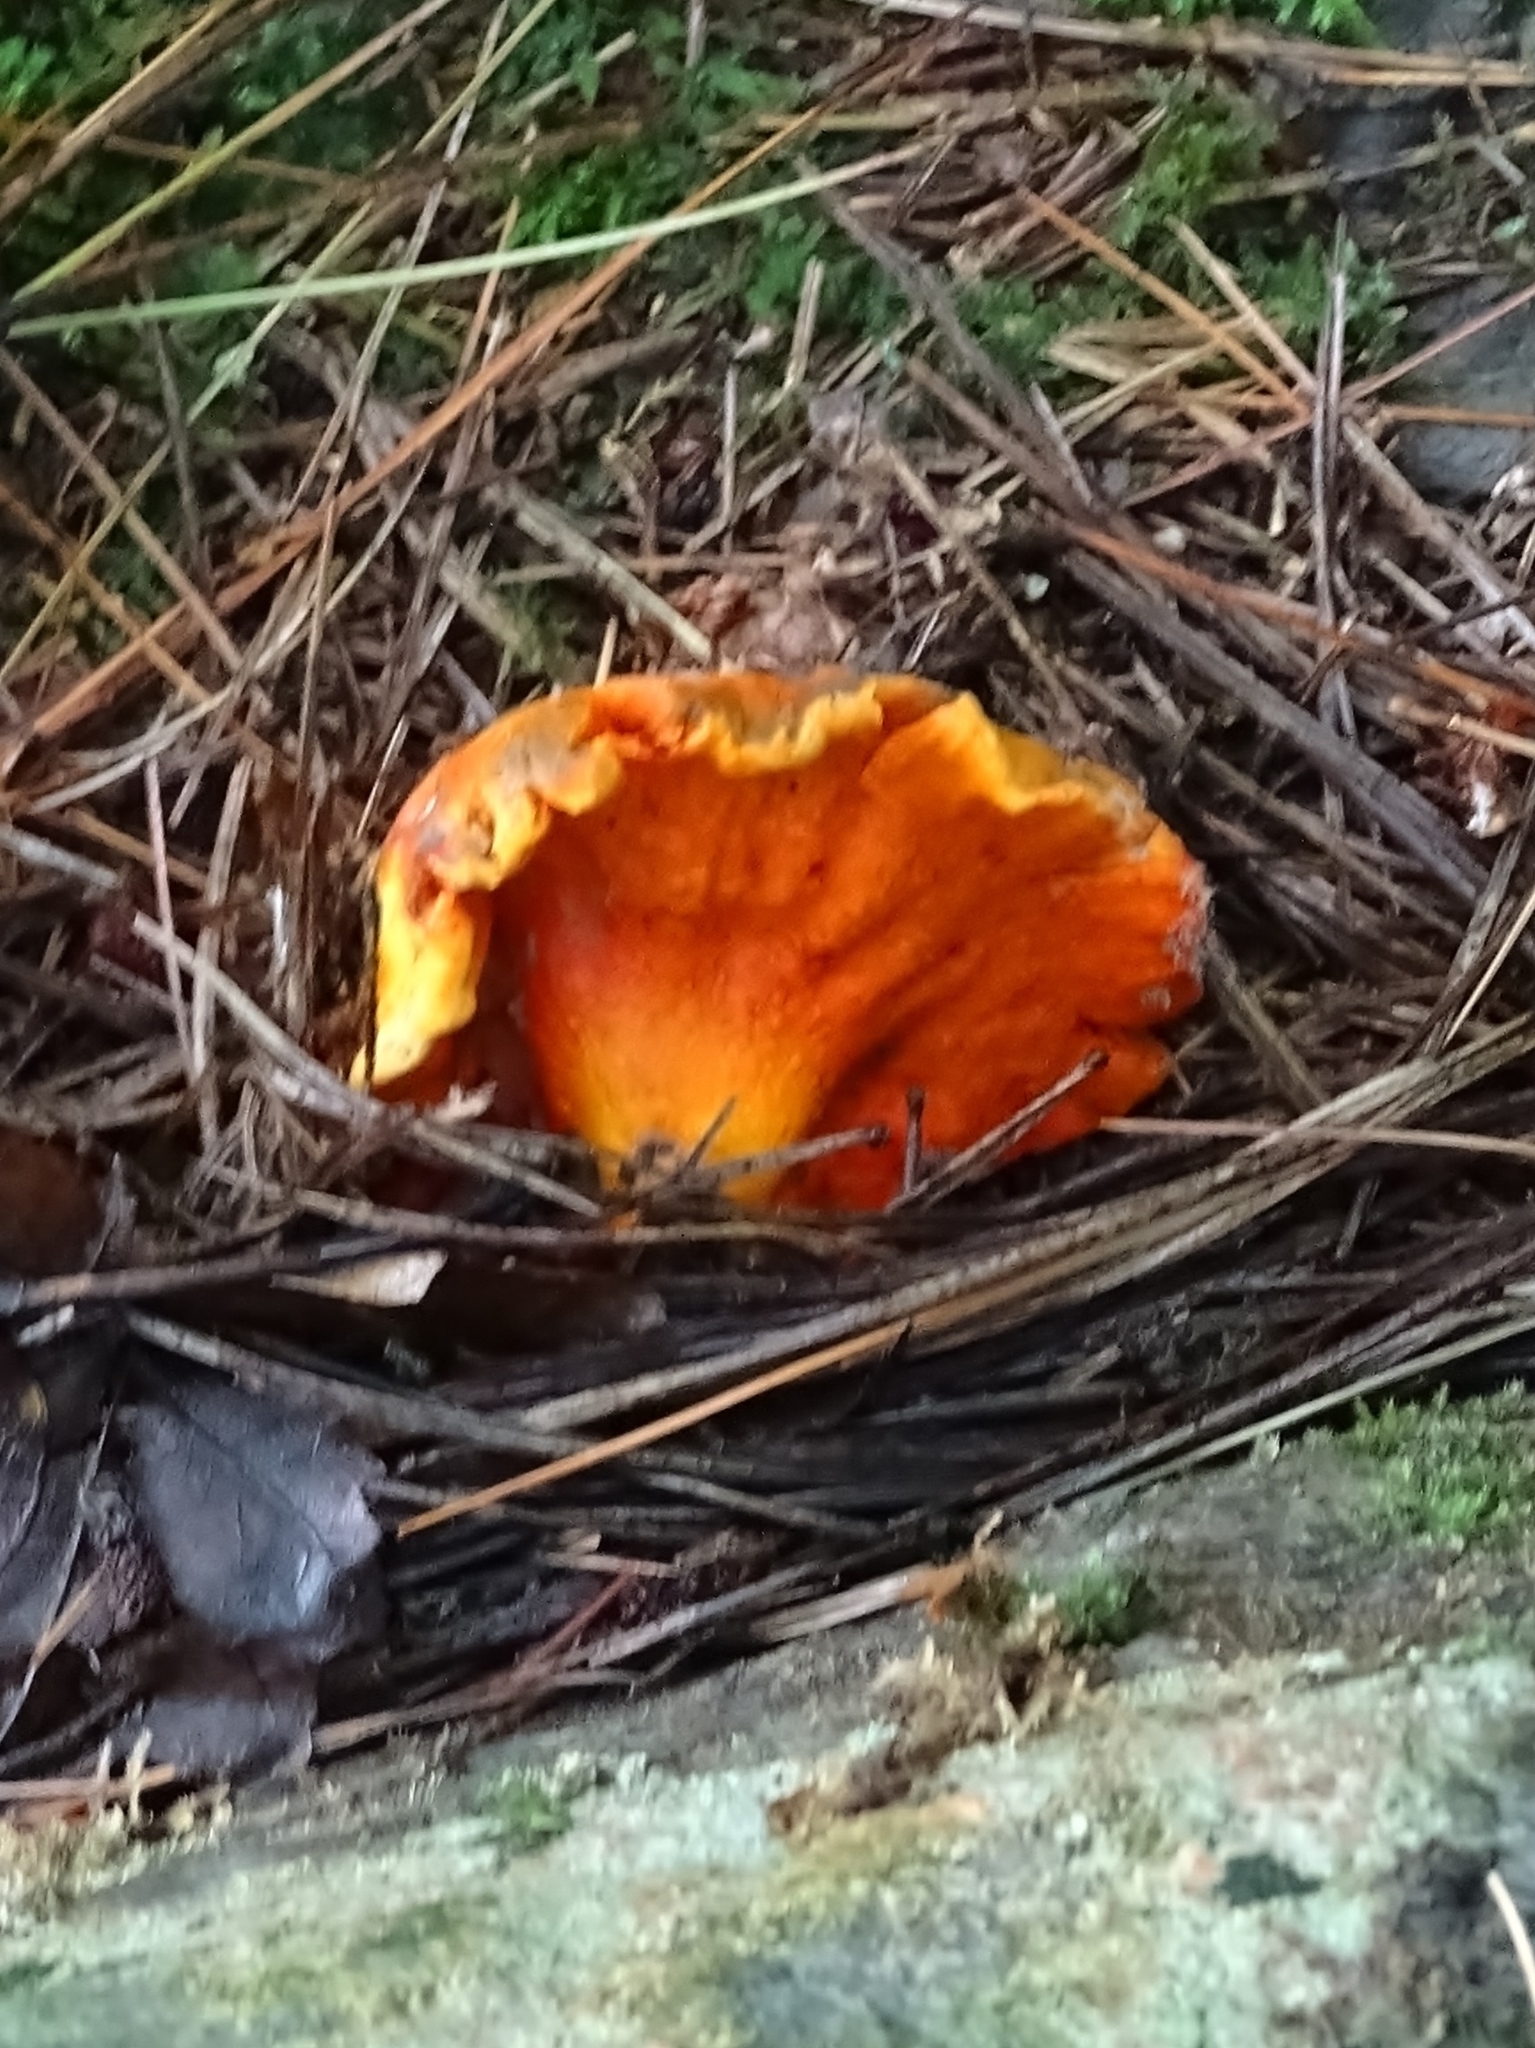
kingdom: Fungi
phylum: Ascomycota
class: Sordariomycetes
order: Hypocreales
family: Hypocreaceae
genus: Hypomyces
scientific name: Hypomyces lactifluorum
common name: Lobster mushroom
